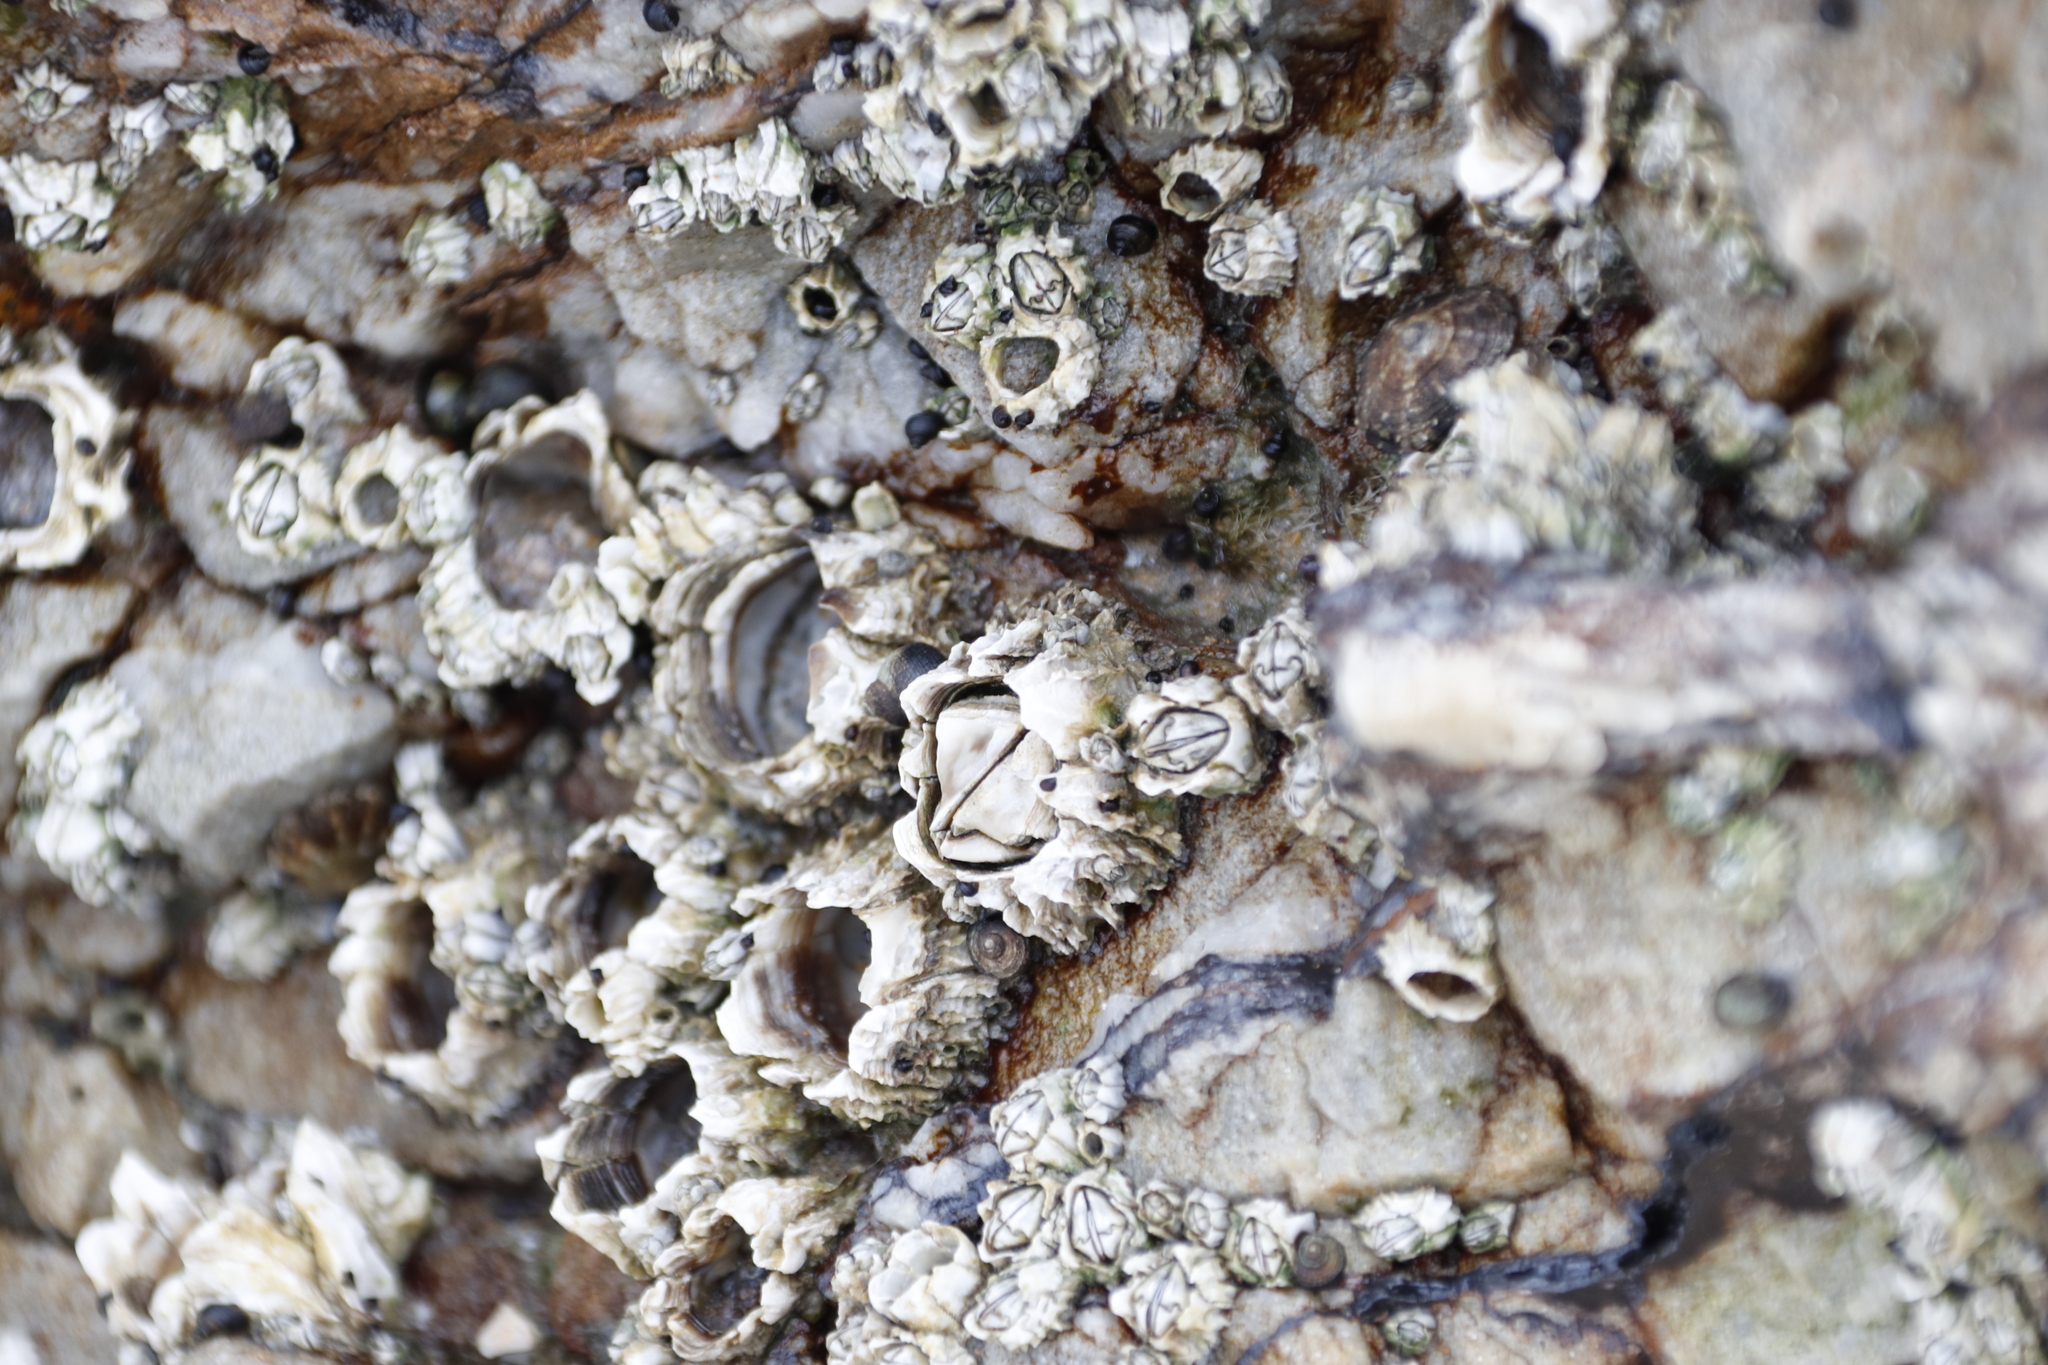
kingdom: Animalia
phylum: Arthropoda
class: Maxillopoda
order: Sessilia
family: Chthamalidae
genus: Chthamalus
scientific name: Chthamalus dentatus
